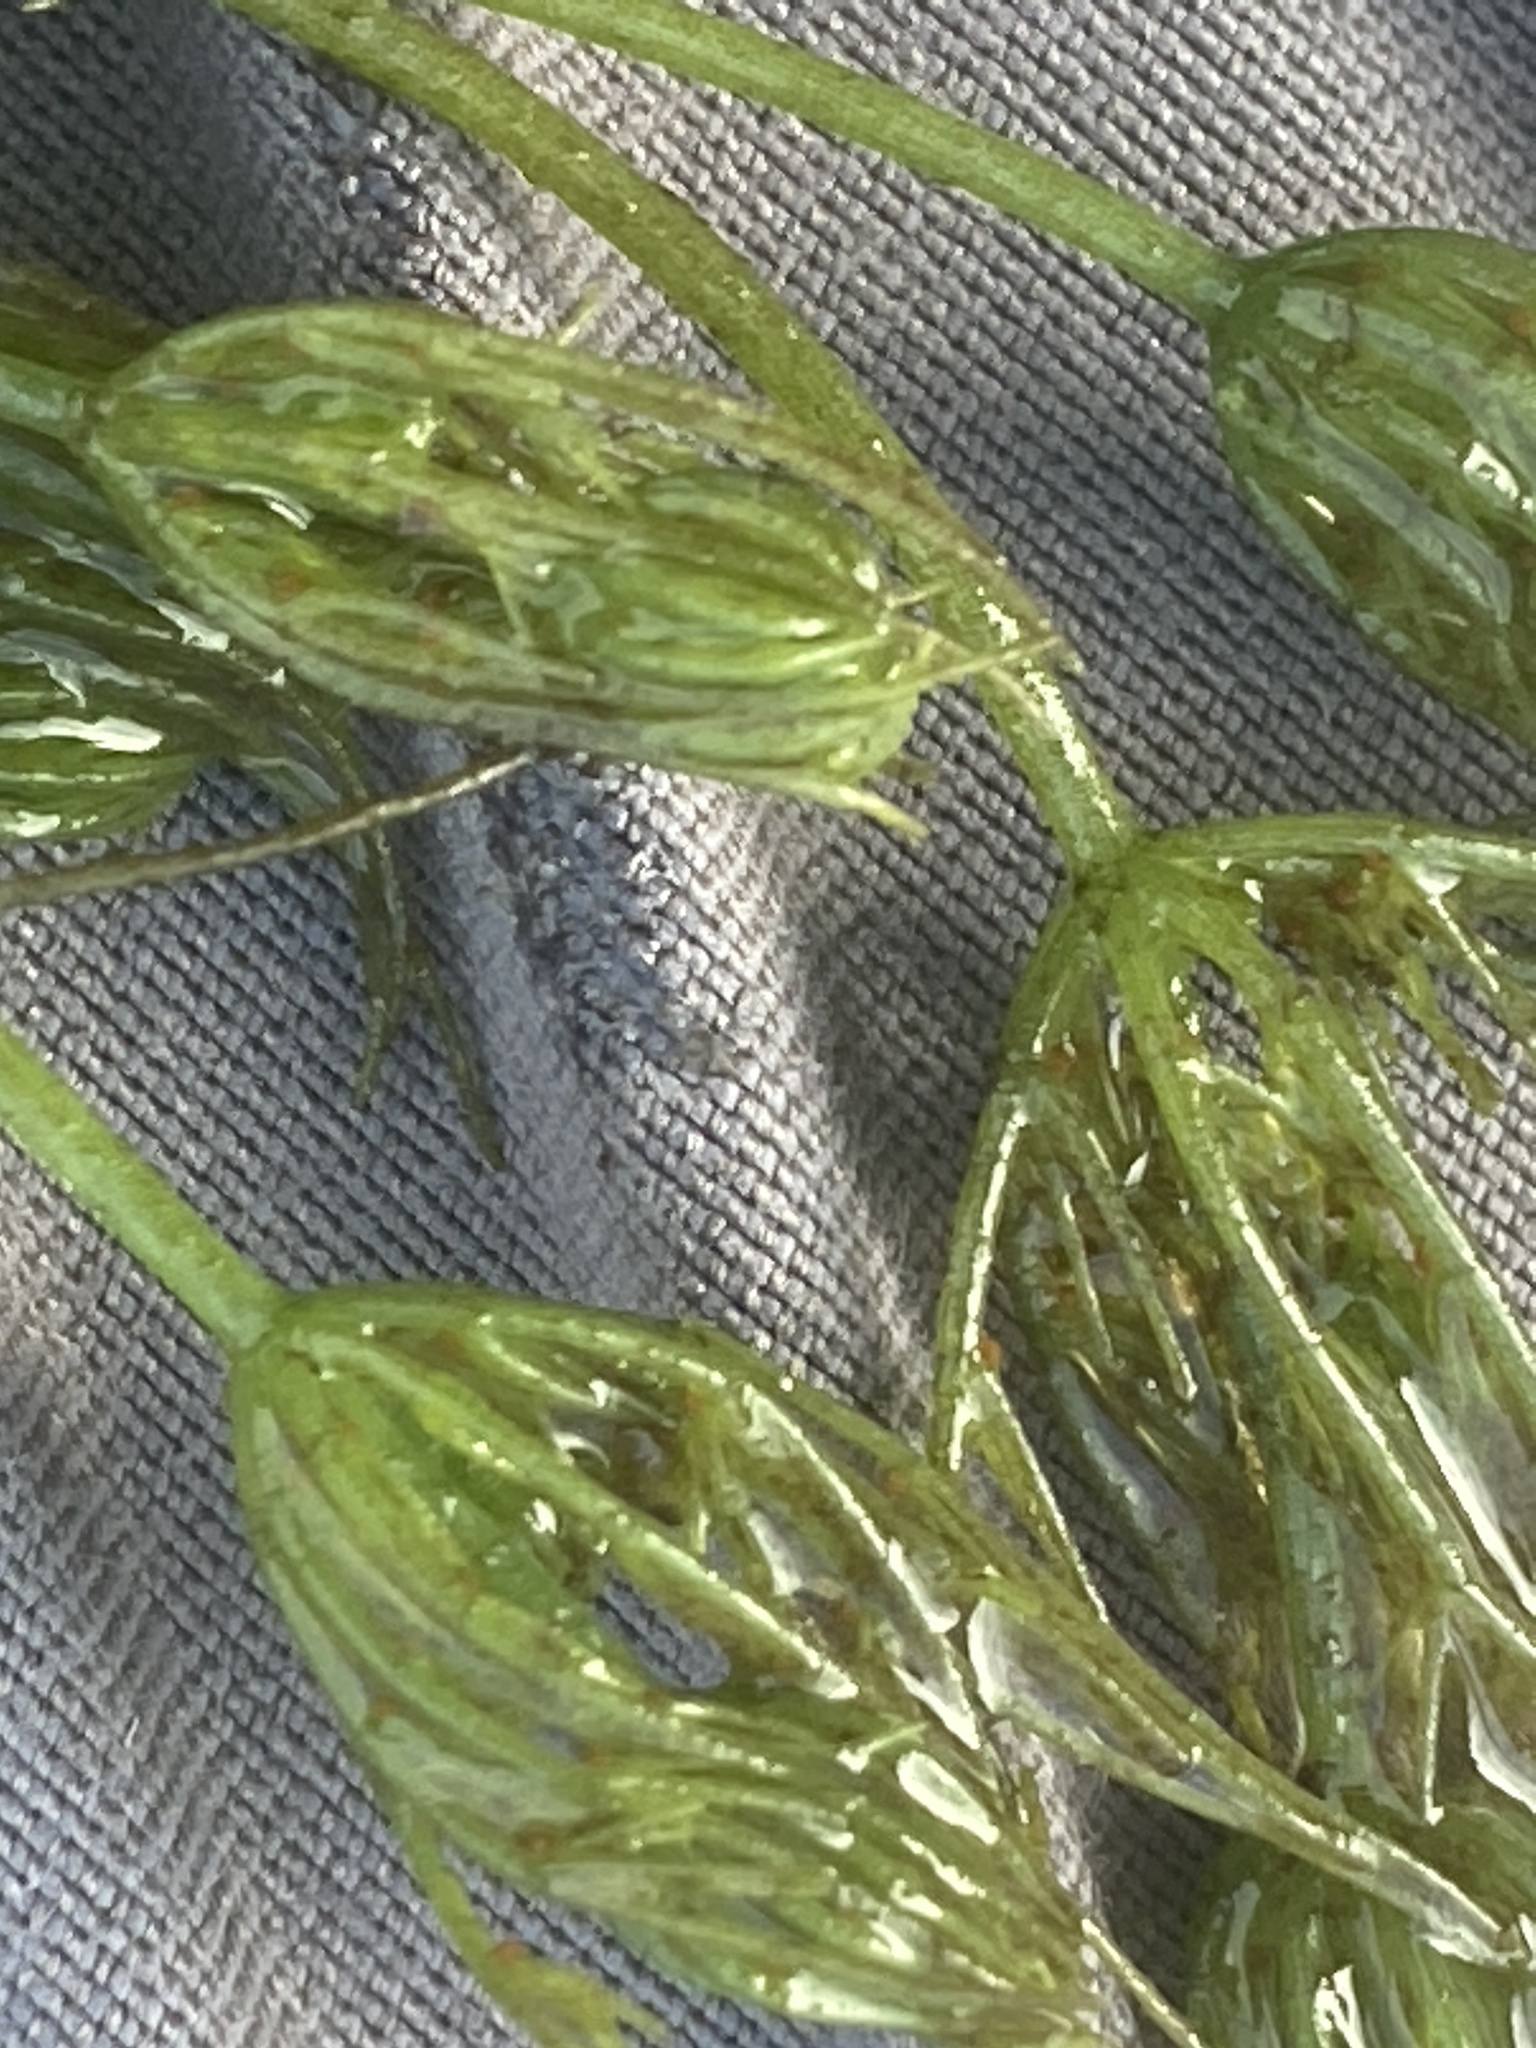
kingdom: Plantae
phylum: Charophyta
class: Charophyceae
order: Charales
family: Characeae
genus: Chara
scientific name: Chara vulgaris
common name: Common stonewort
